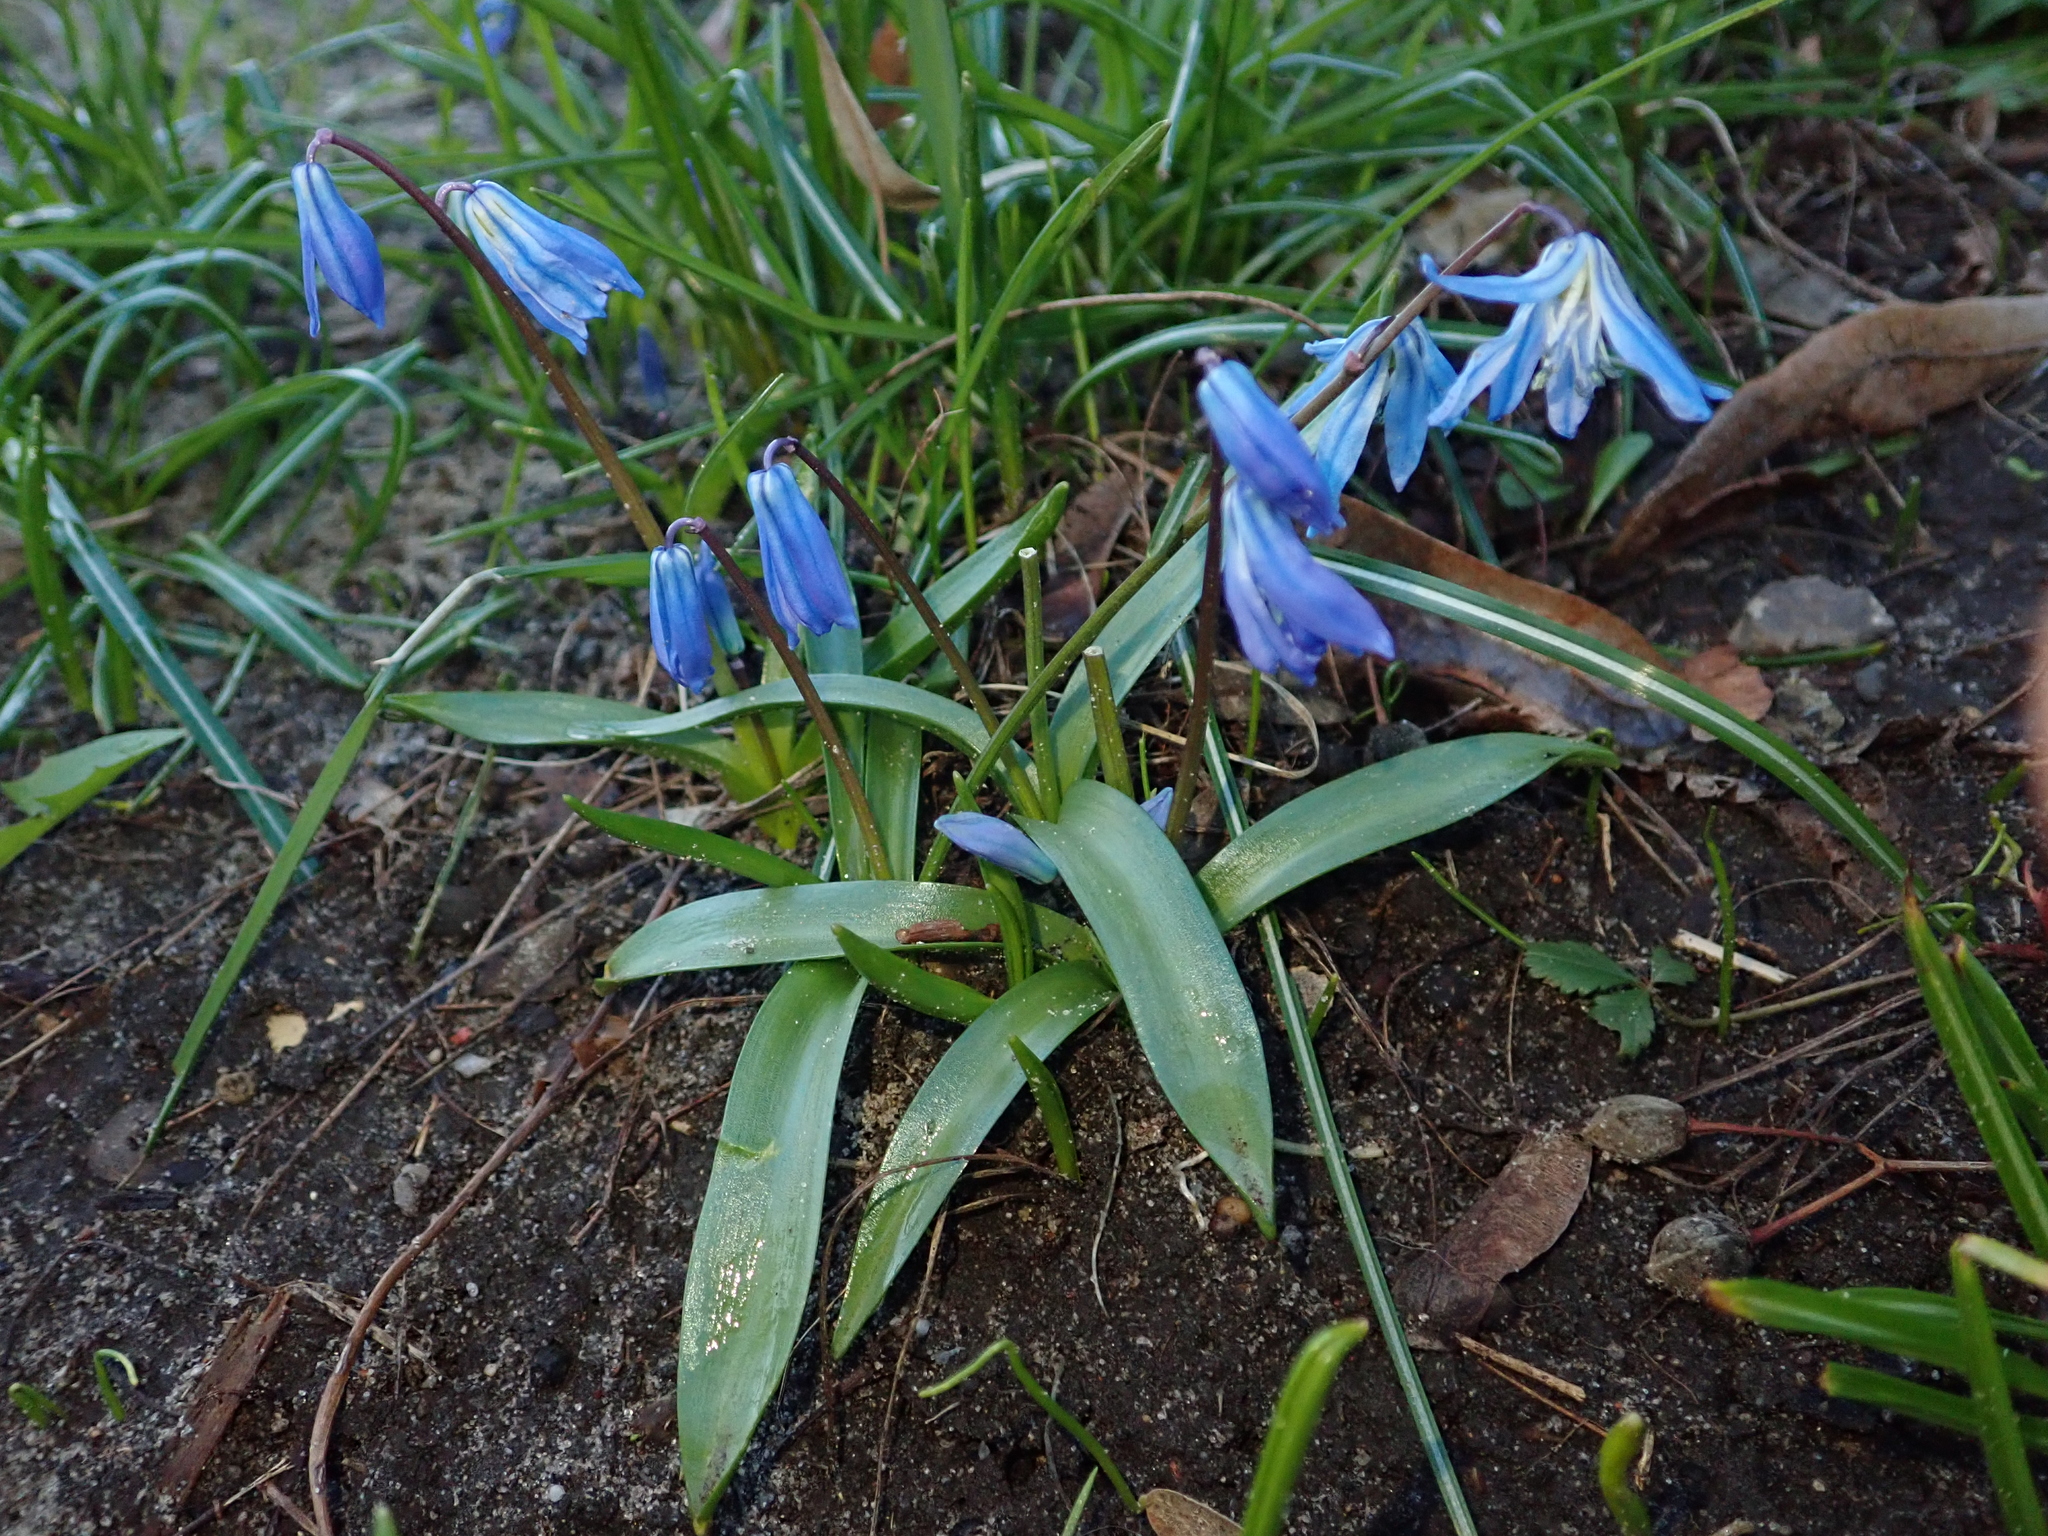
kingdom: Plantae
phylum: Tracheophyta
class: Liliopsida
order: Asparagales
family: Asparagaceae
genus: Scilla
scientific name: Scilla siberica
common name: Siberian squill
